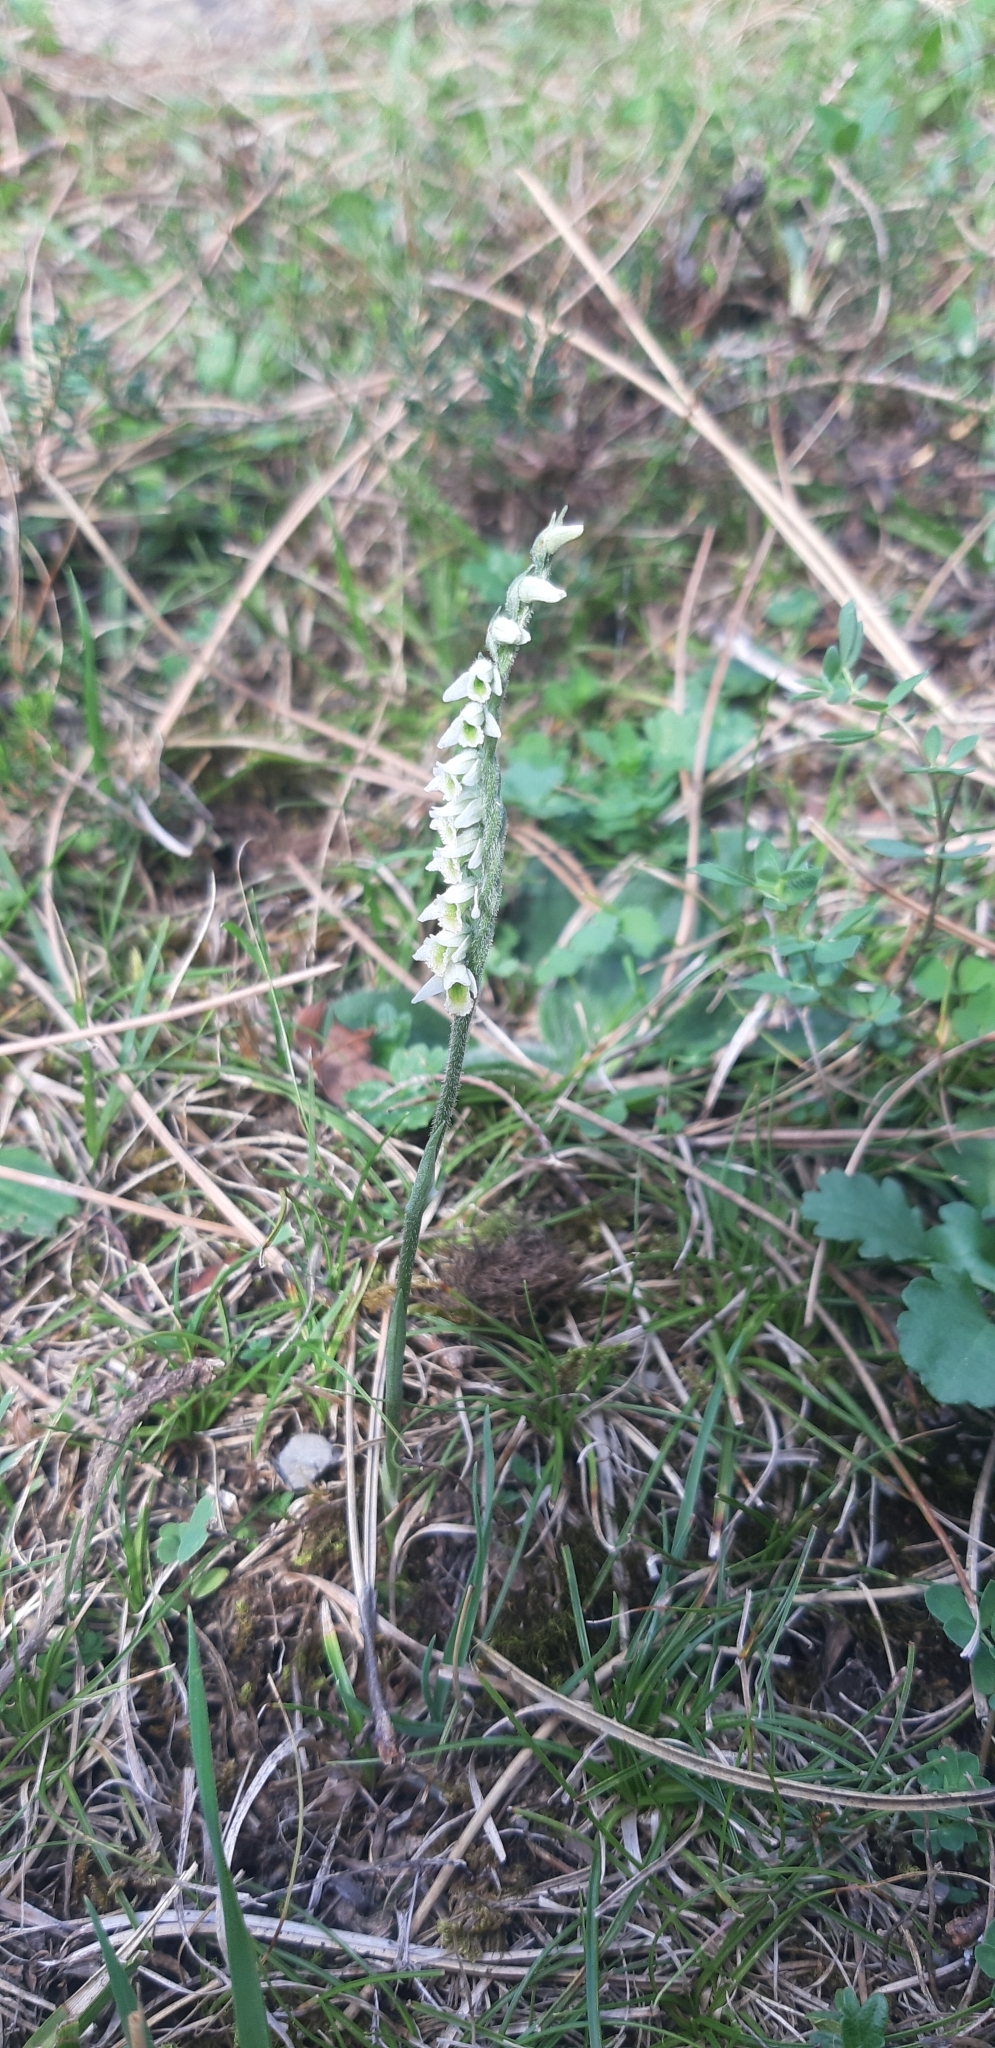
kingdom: Plantae
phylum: Tracheophyta
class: Liliopsida
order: Asparagales
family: Orchidaceae
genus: Spiranthes
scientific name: Spiranthes spiralis
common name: Autumn lady's-tresses
